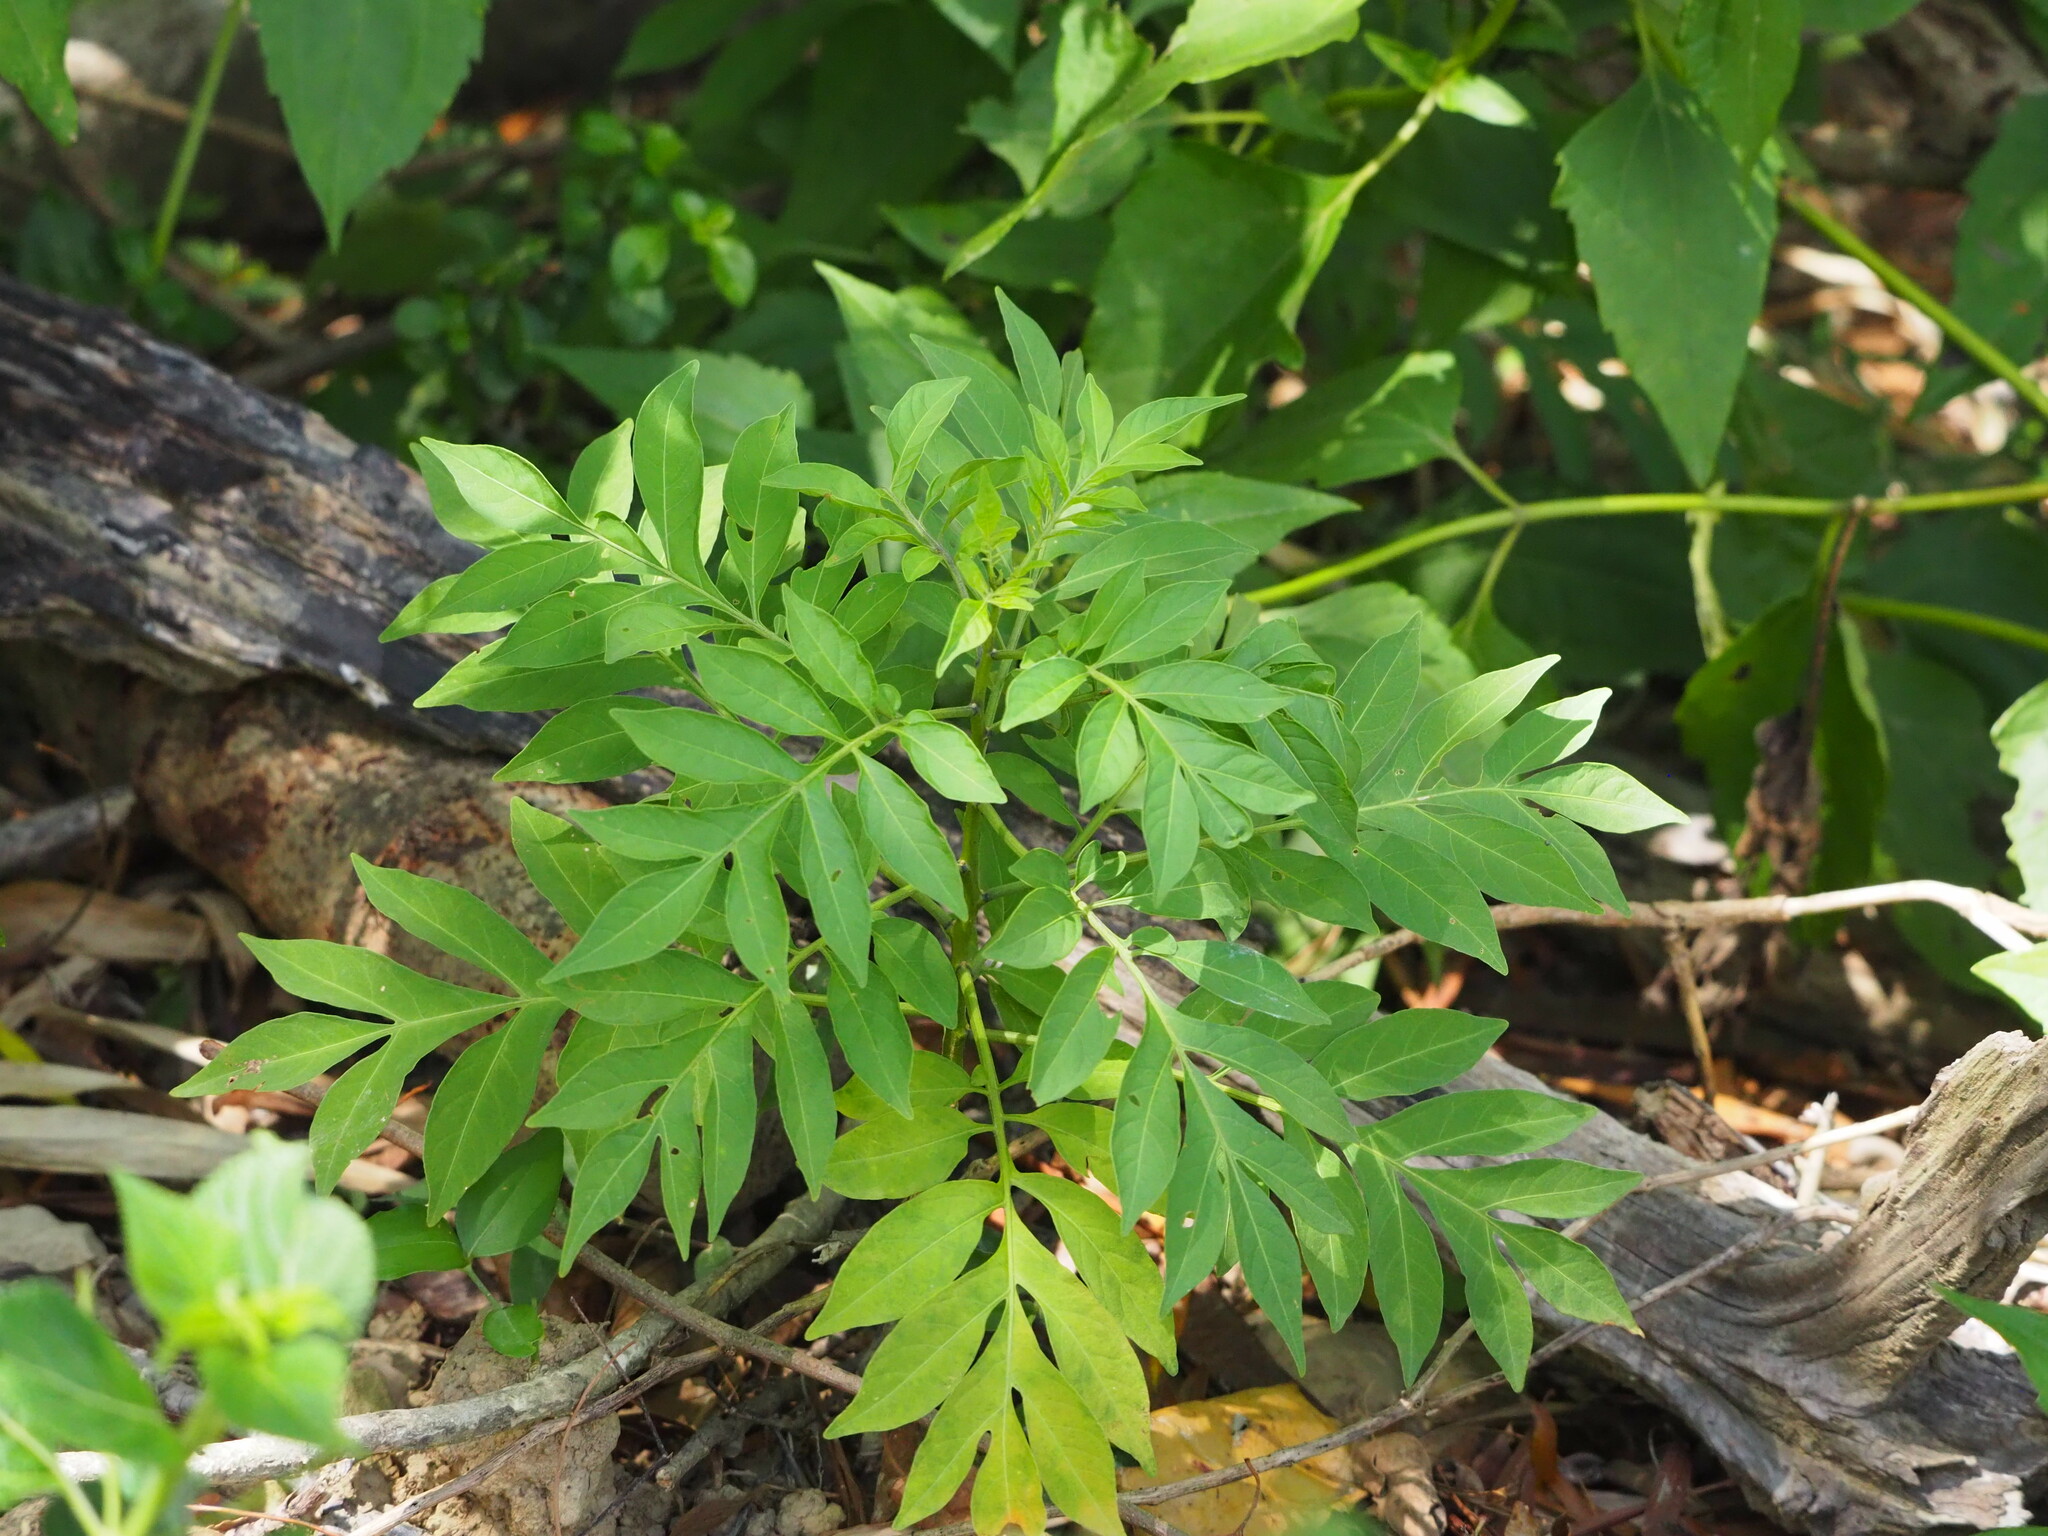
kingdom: Plantae
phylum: Tracheophyta
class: Magnoliopsida
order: Solanales
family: Solanaceae
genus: Solanum
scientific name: Solanum seaforthianum
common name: Brazilian nightshade
